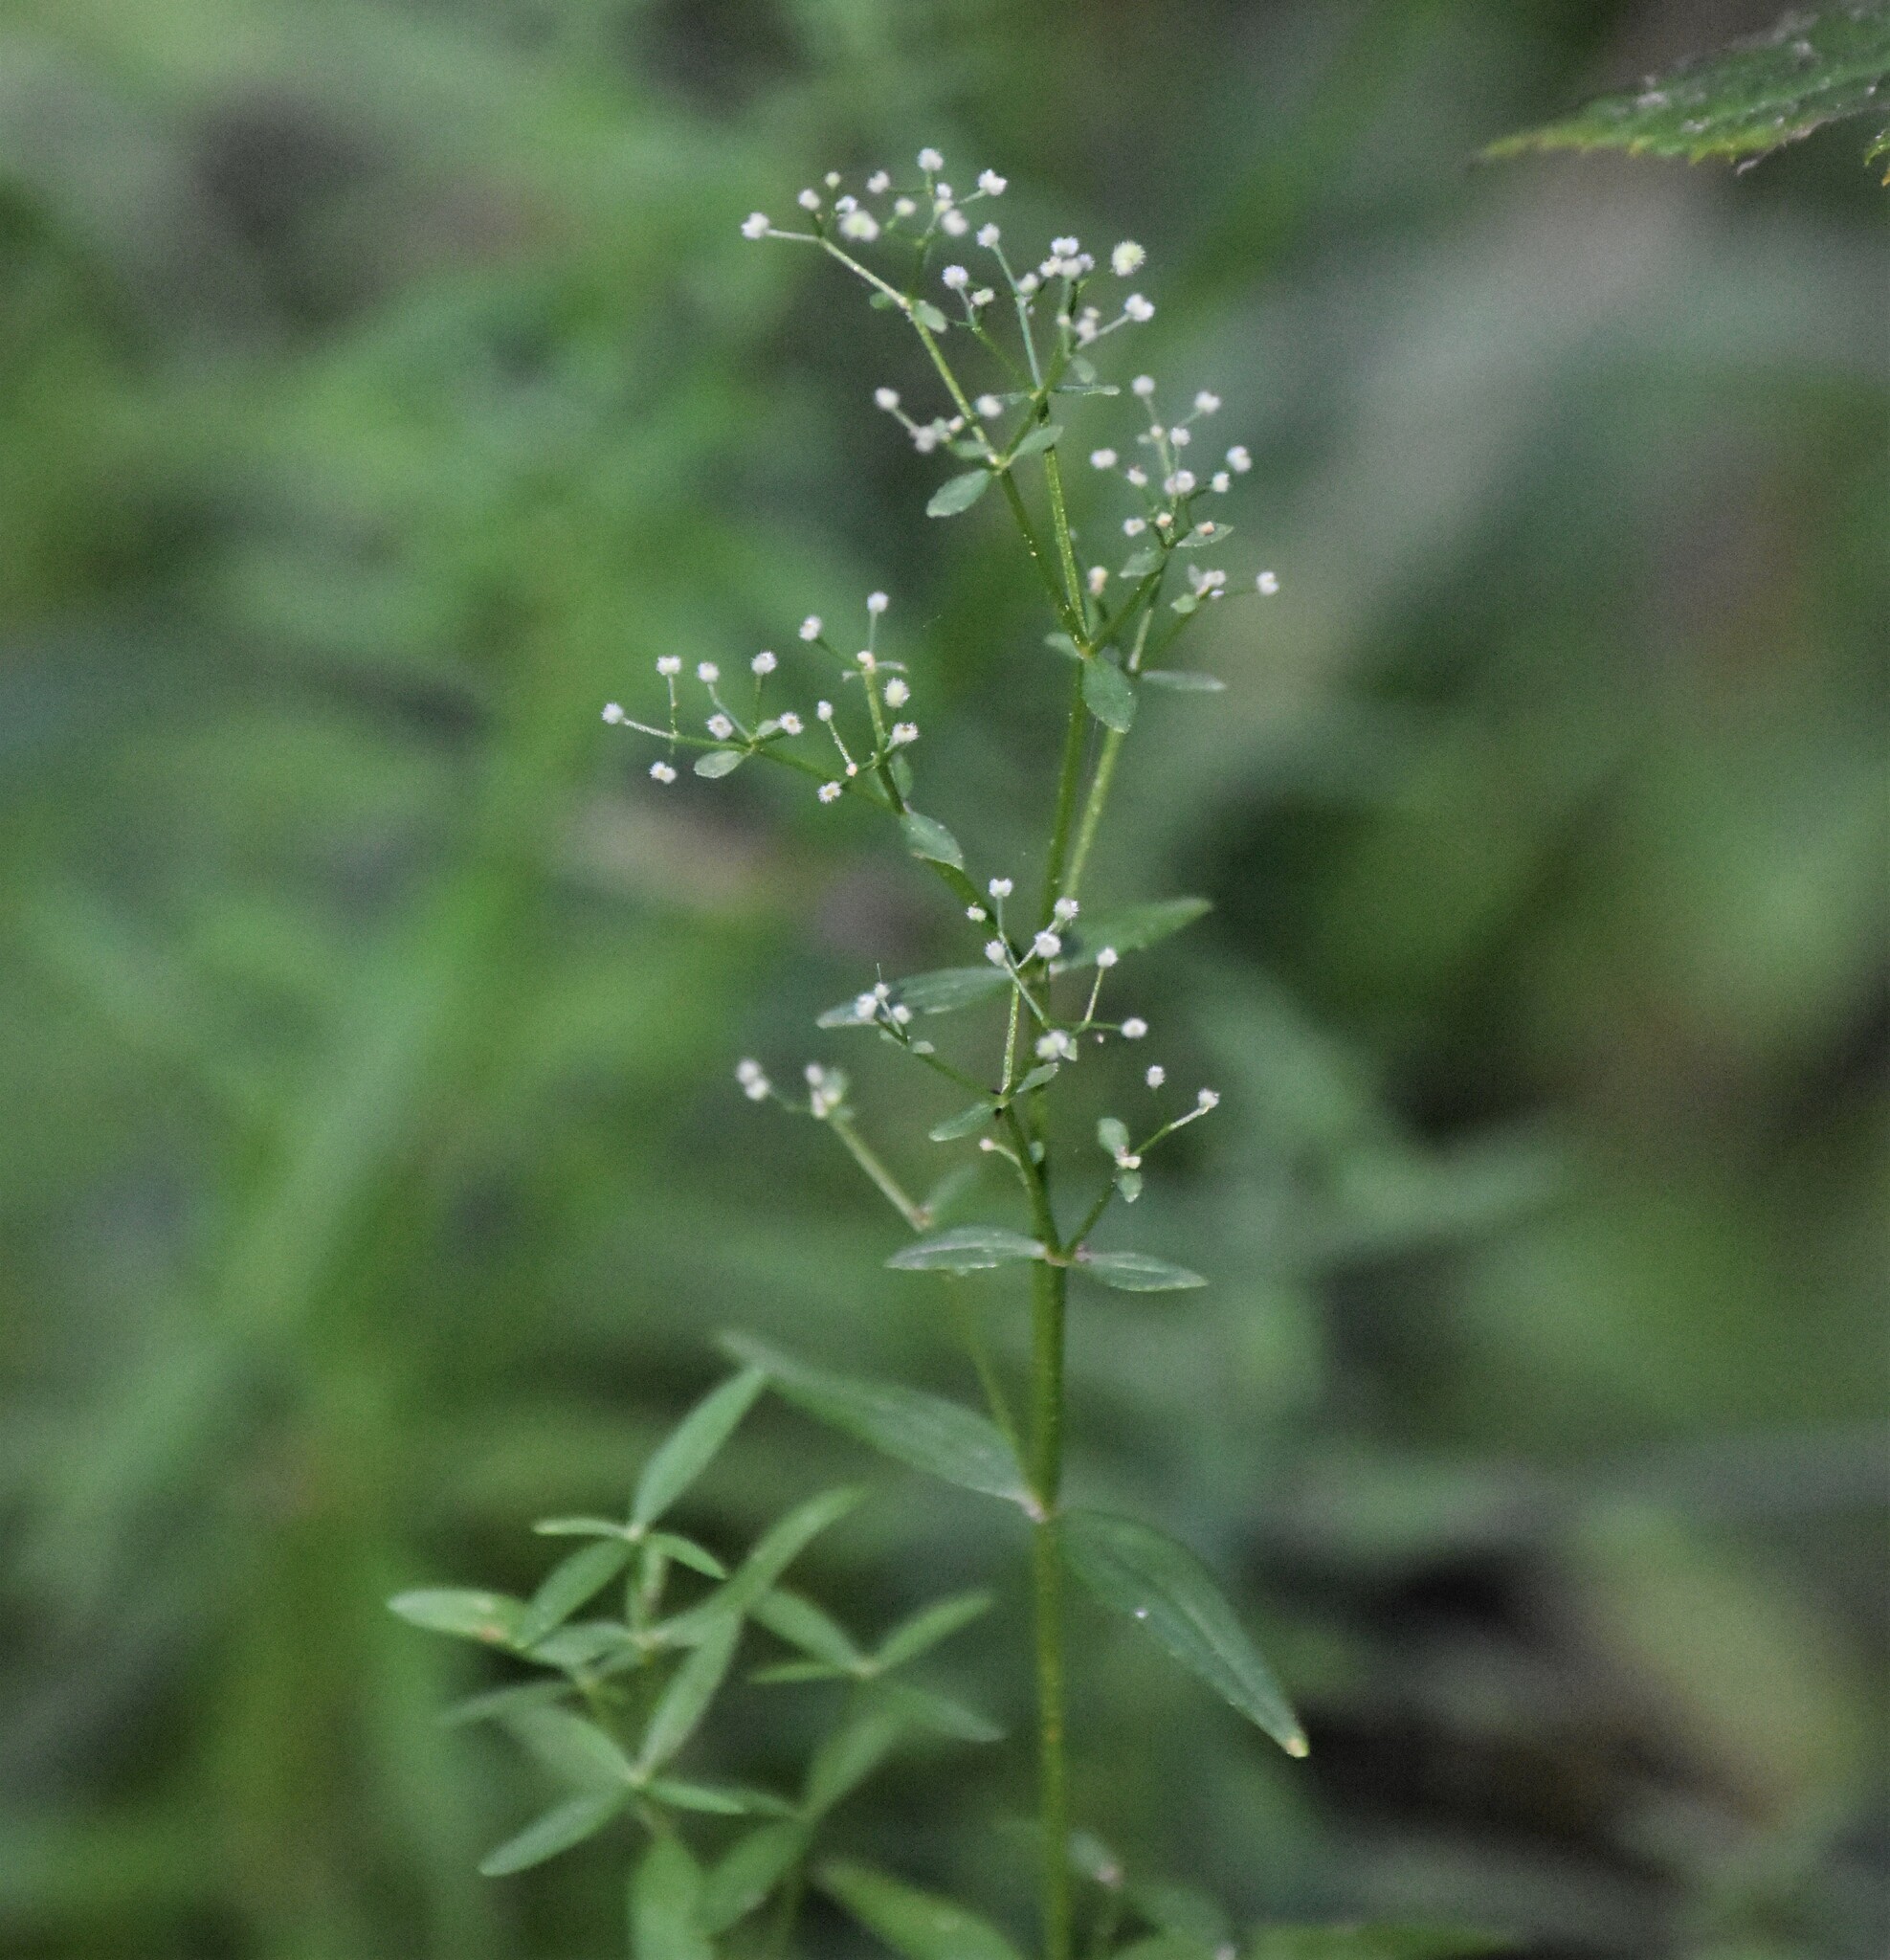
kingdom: Plantae
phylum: Tracheophyta
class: Magnoliopsida
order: Gentianales
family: Rubiaceae
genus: Galium
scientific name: Galium boreale
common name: Northern bedstraw
